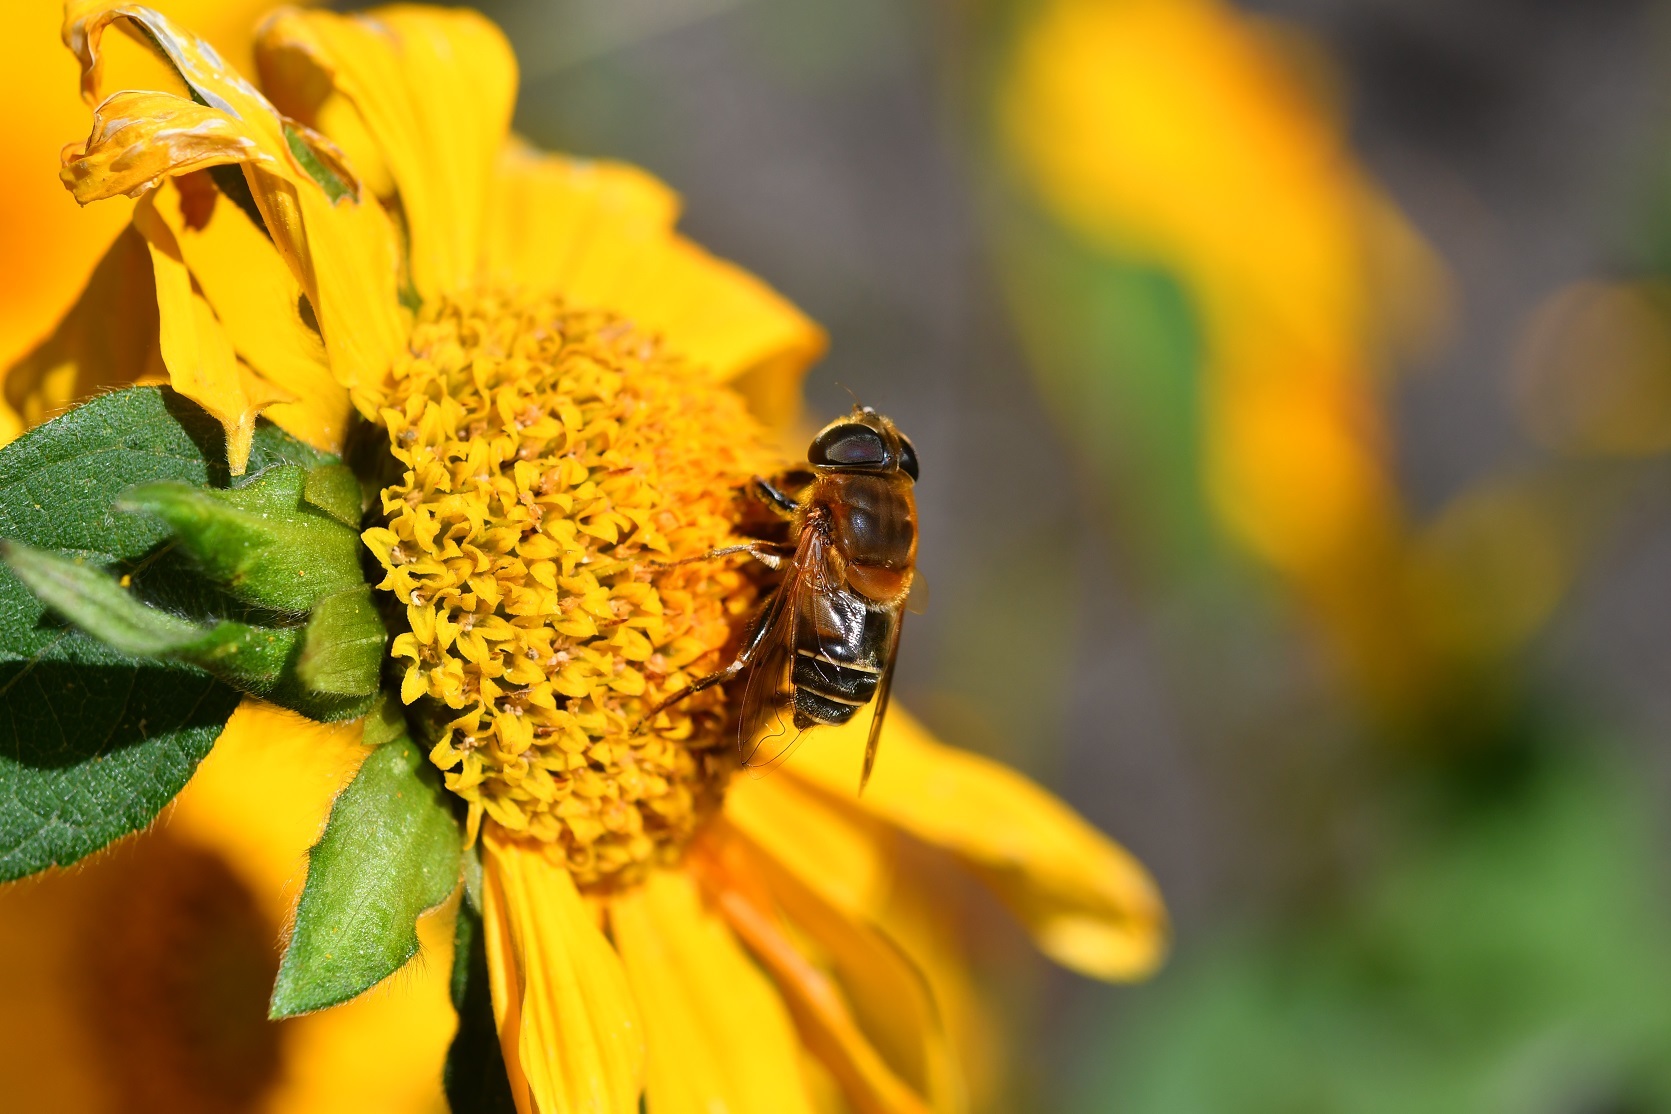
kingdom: Animalia
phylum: Arthropoda
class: Insecta
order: Diptera
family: Syrphidae
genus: Palpada
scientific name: Palpada mexicana
